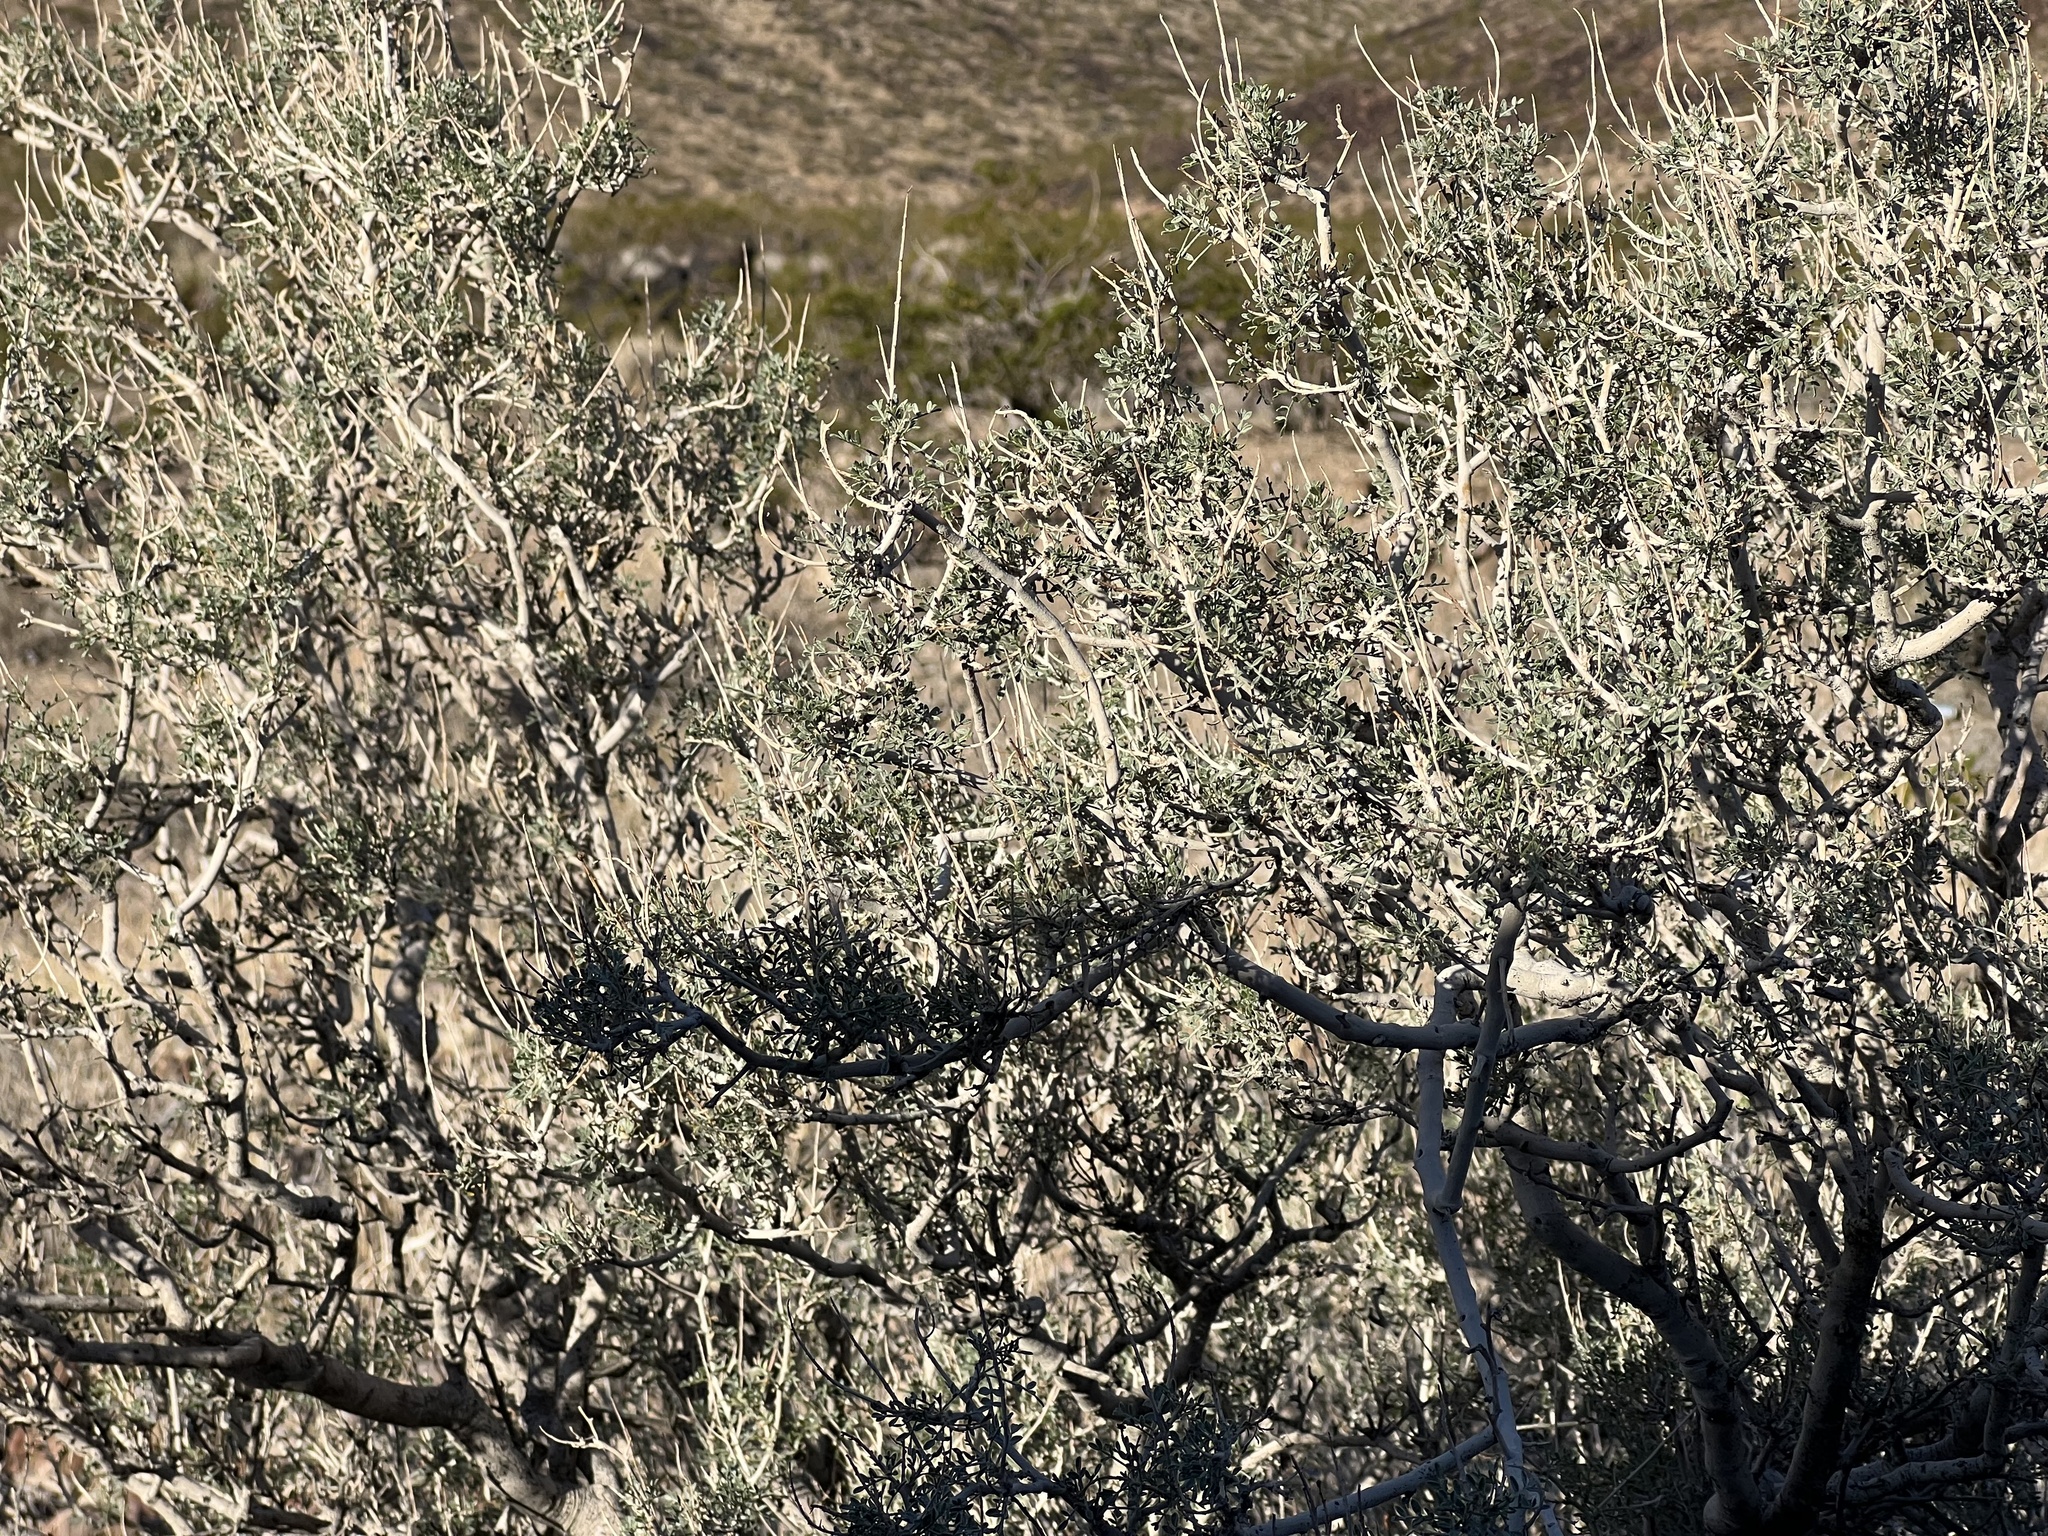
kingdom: Plantae
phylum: Tracheophyta
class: Magnoliopsida
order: Fabales
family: Fabaceae
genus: Psorothamnus
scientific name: Psorothamnus fremontii
